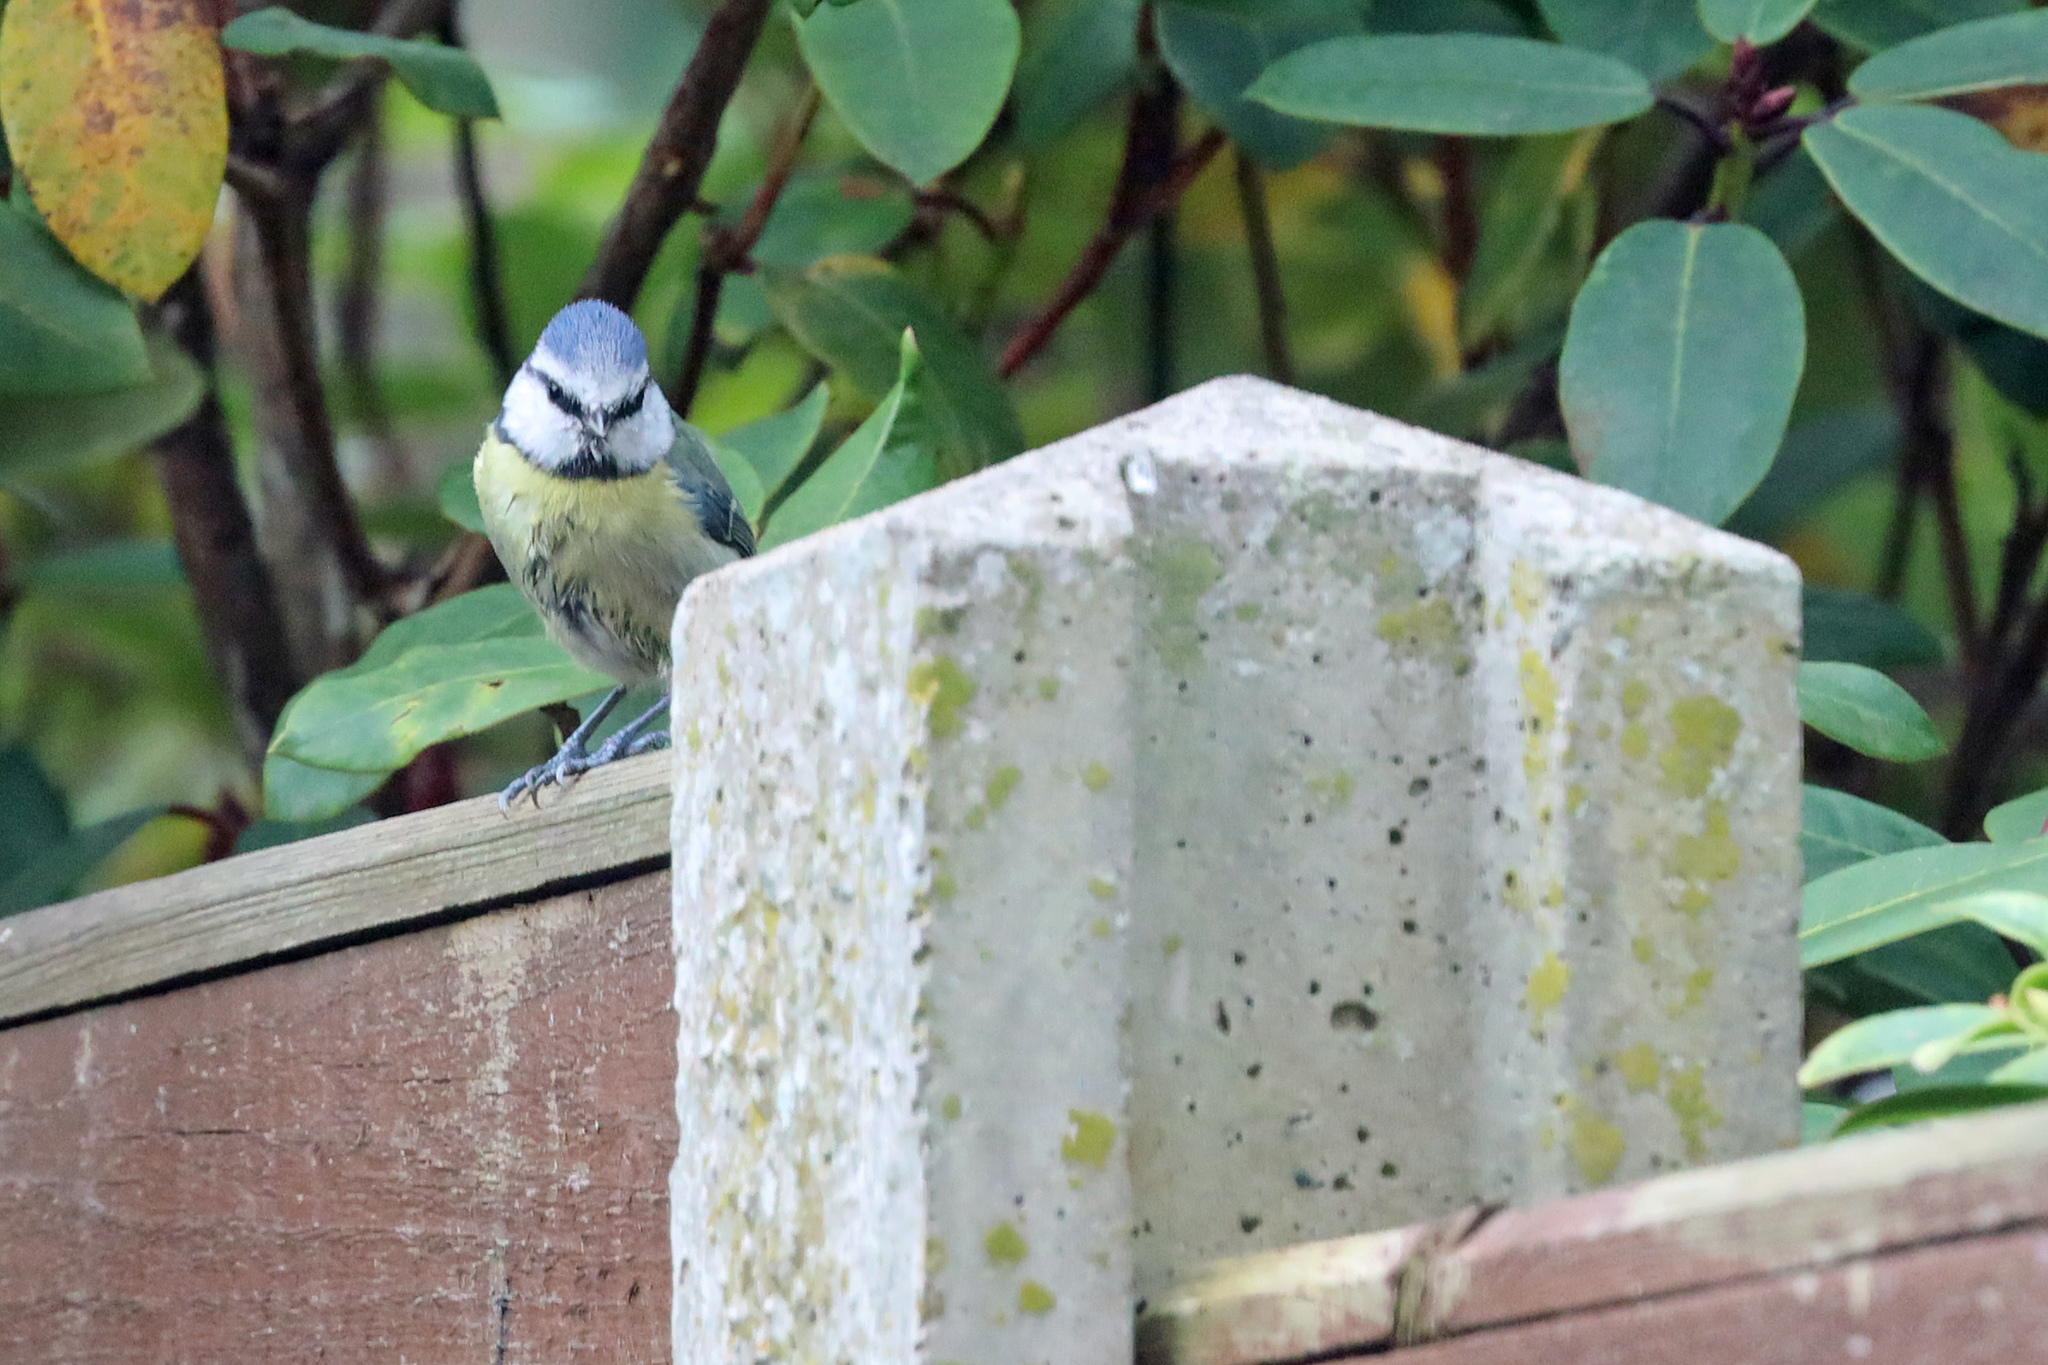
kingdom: Animalia
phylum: Chordata
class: Aves
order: Passeriformes
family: Paridae
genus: Cyanistes
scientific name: Cyanistes caeruleus
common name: Eurasian blue tit
